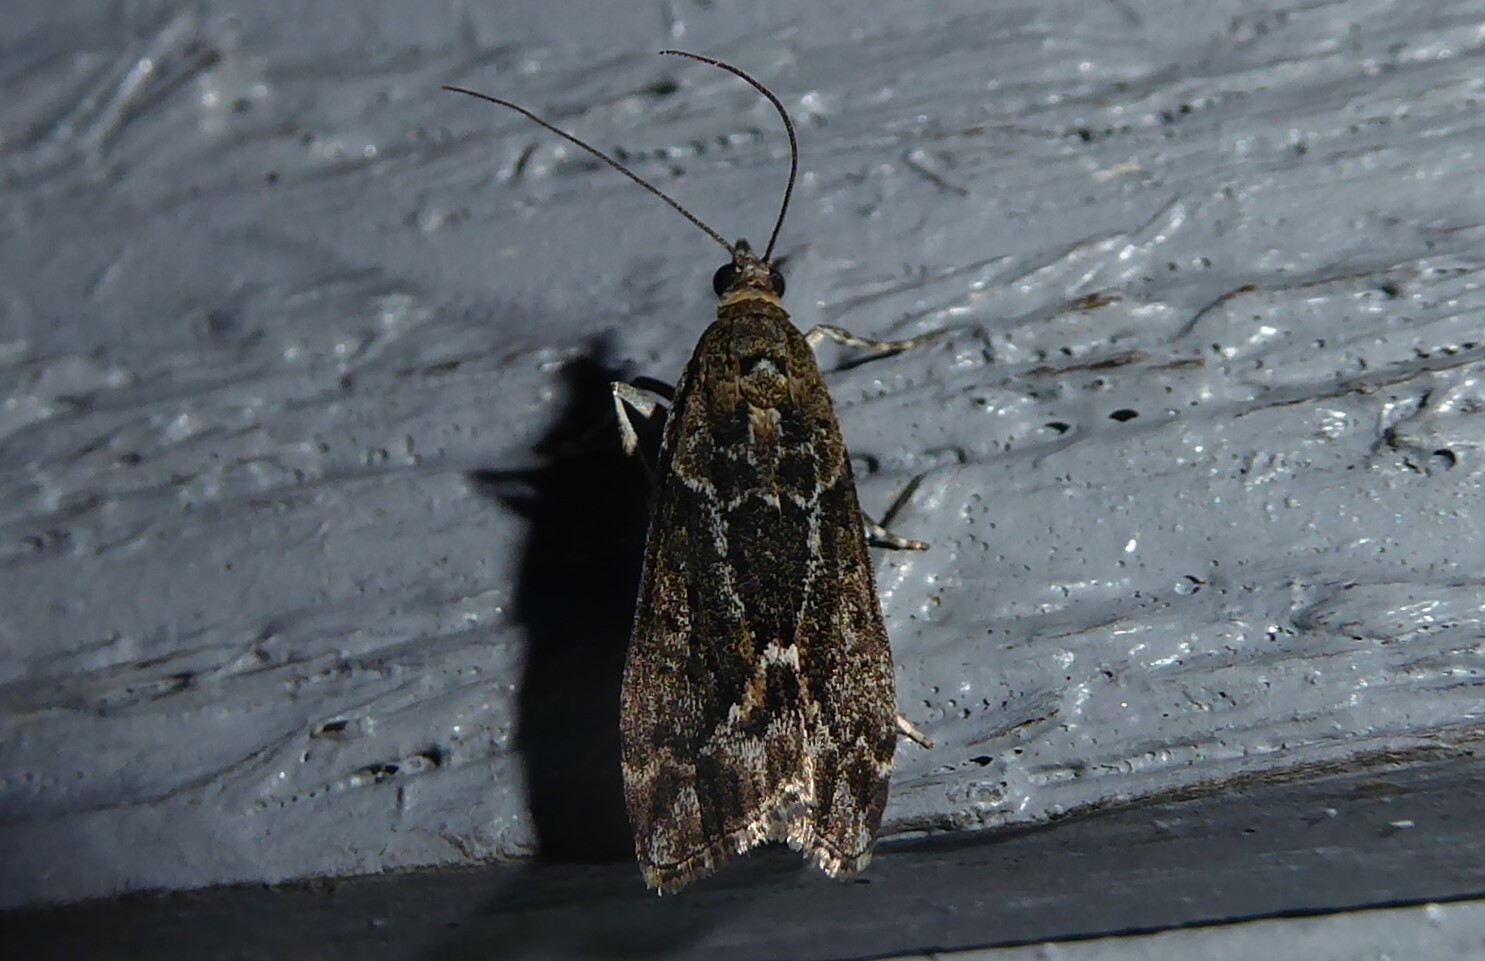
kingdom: Animalia
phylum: Arthropoda
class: Insecta
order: Lepidoptera
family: Crambidae
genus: Eudonia
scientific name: Eudonia submarginalis
